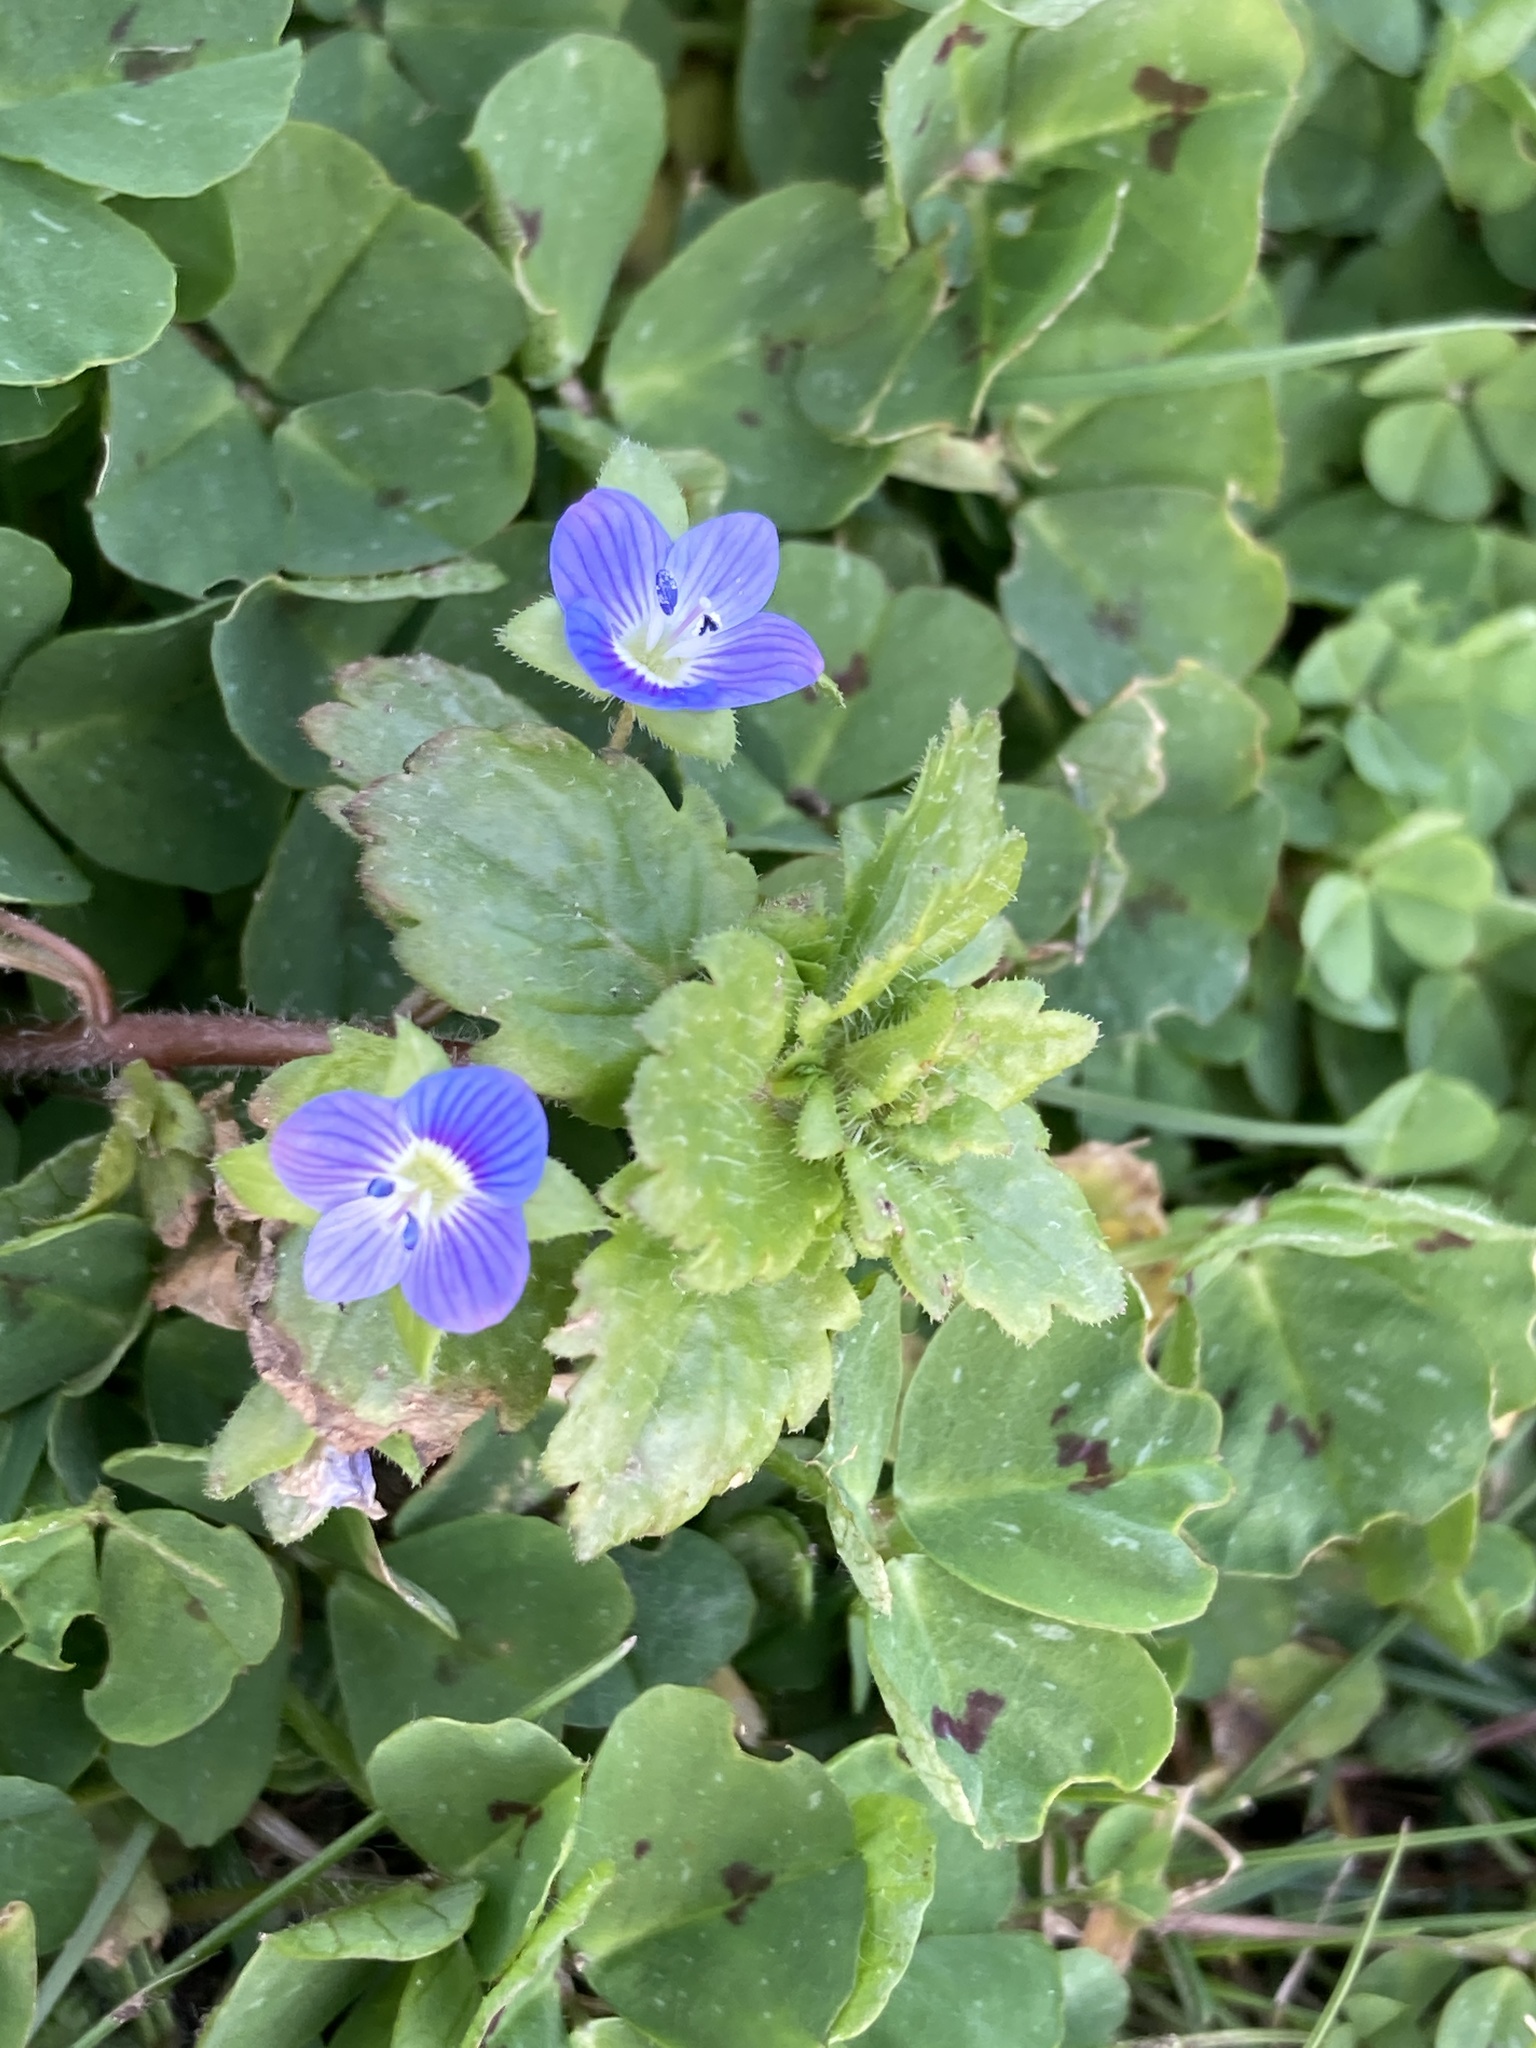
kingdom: Plantae
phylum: Tracheophyta
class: Magnoliopsida
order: Lamiales
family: Plantaginaceae
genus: Veronica
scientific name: Veronica persica
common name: Common field-speedwell
